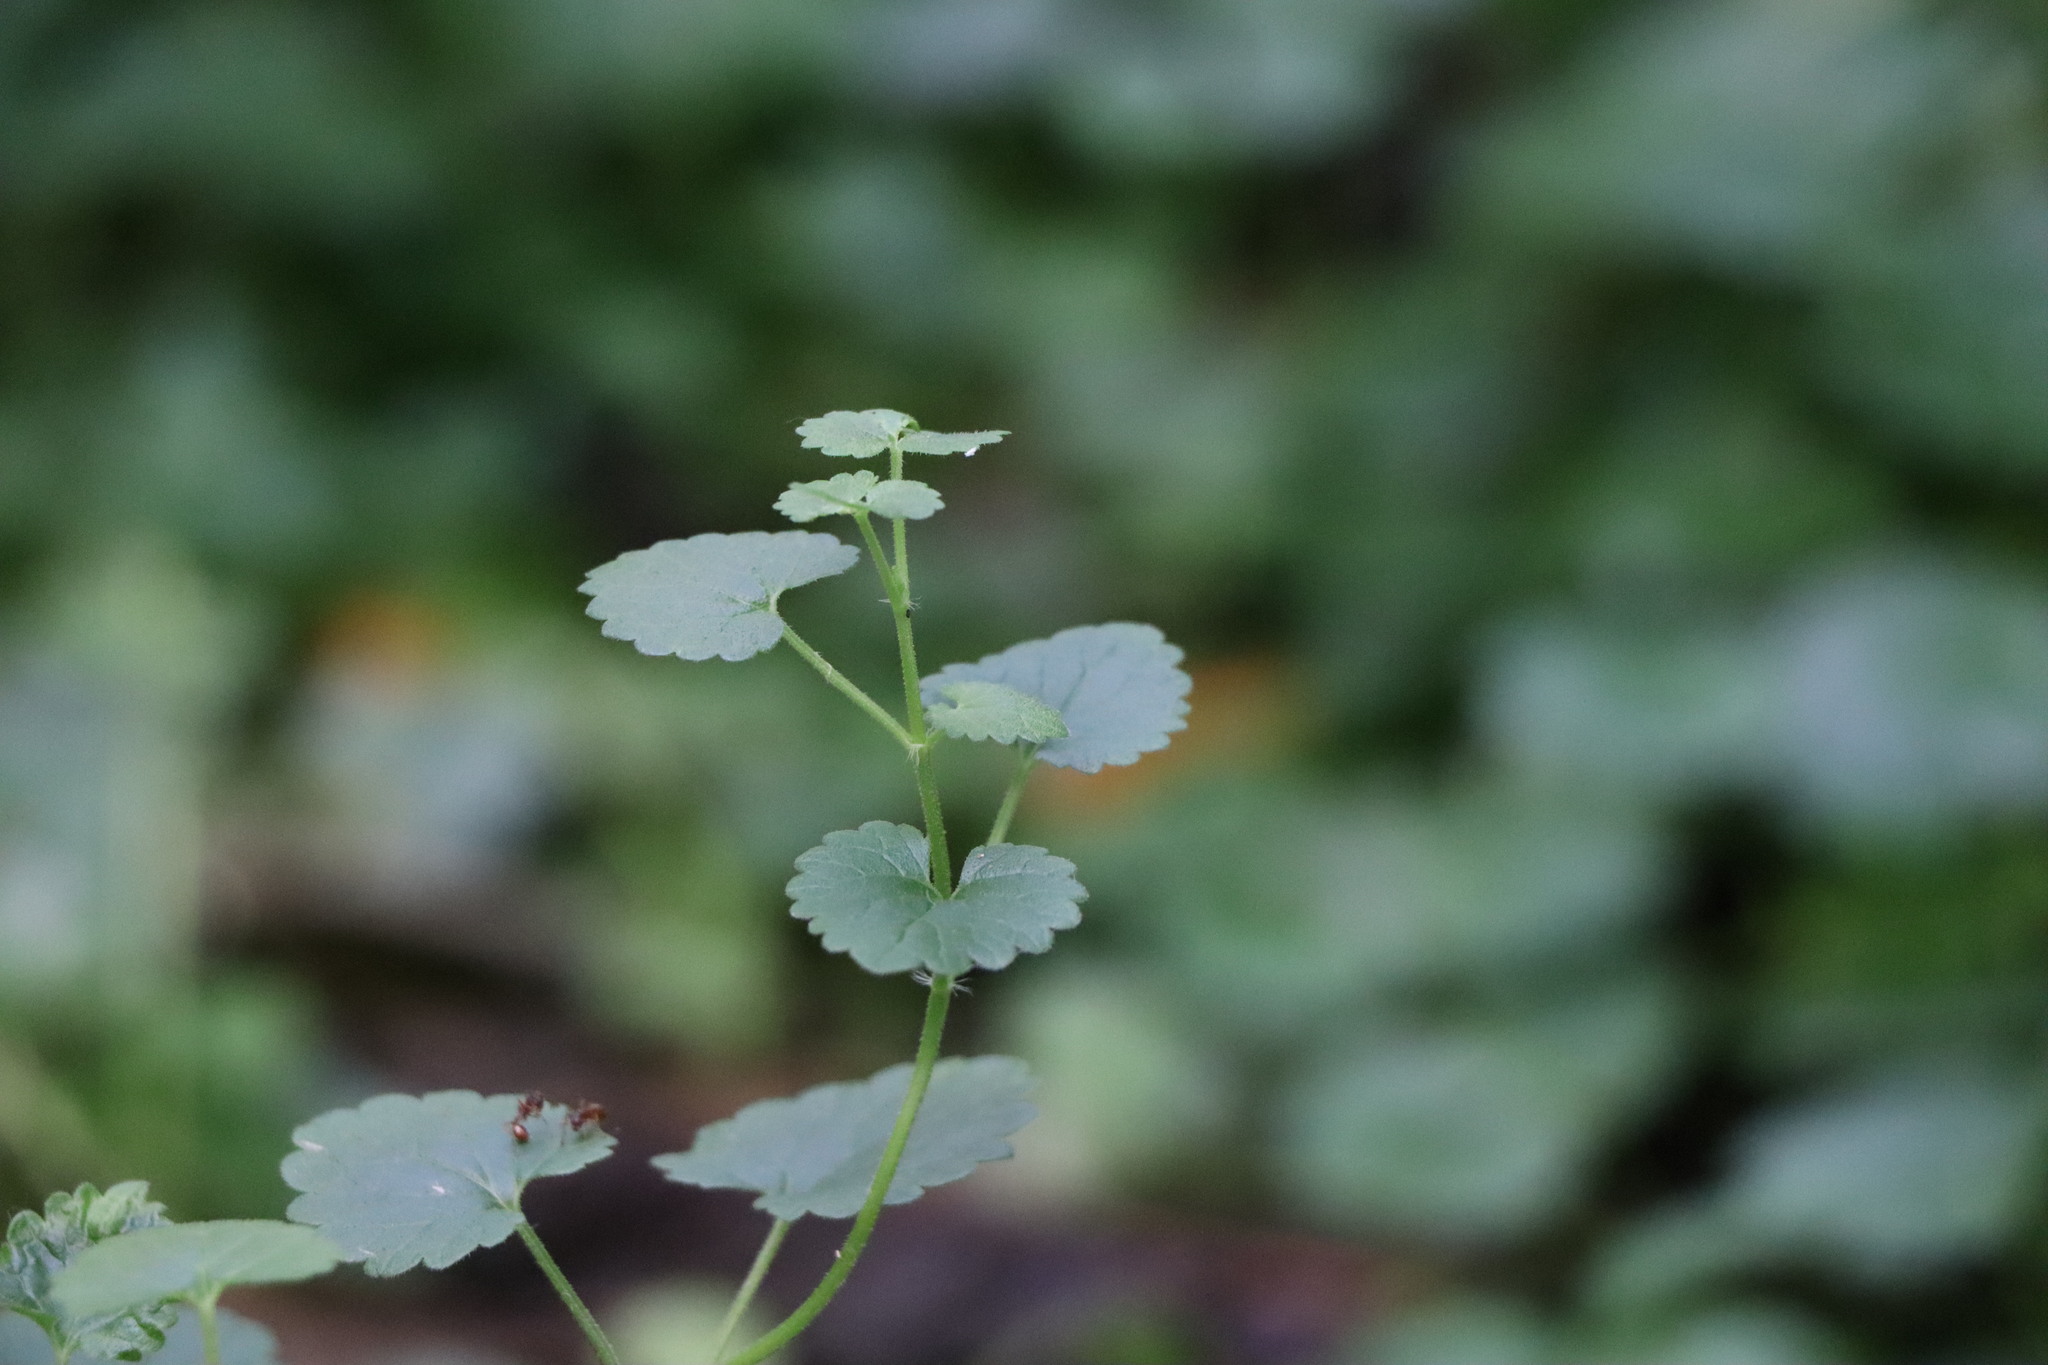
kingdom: Plantae
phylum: Tracheophyta
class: Magnoliopsida
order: Lamiales
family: Lamiaceae
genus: Glechoma
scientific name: Glechoma hederacea
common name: Ground ivy
